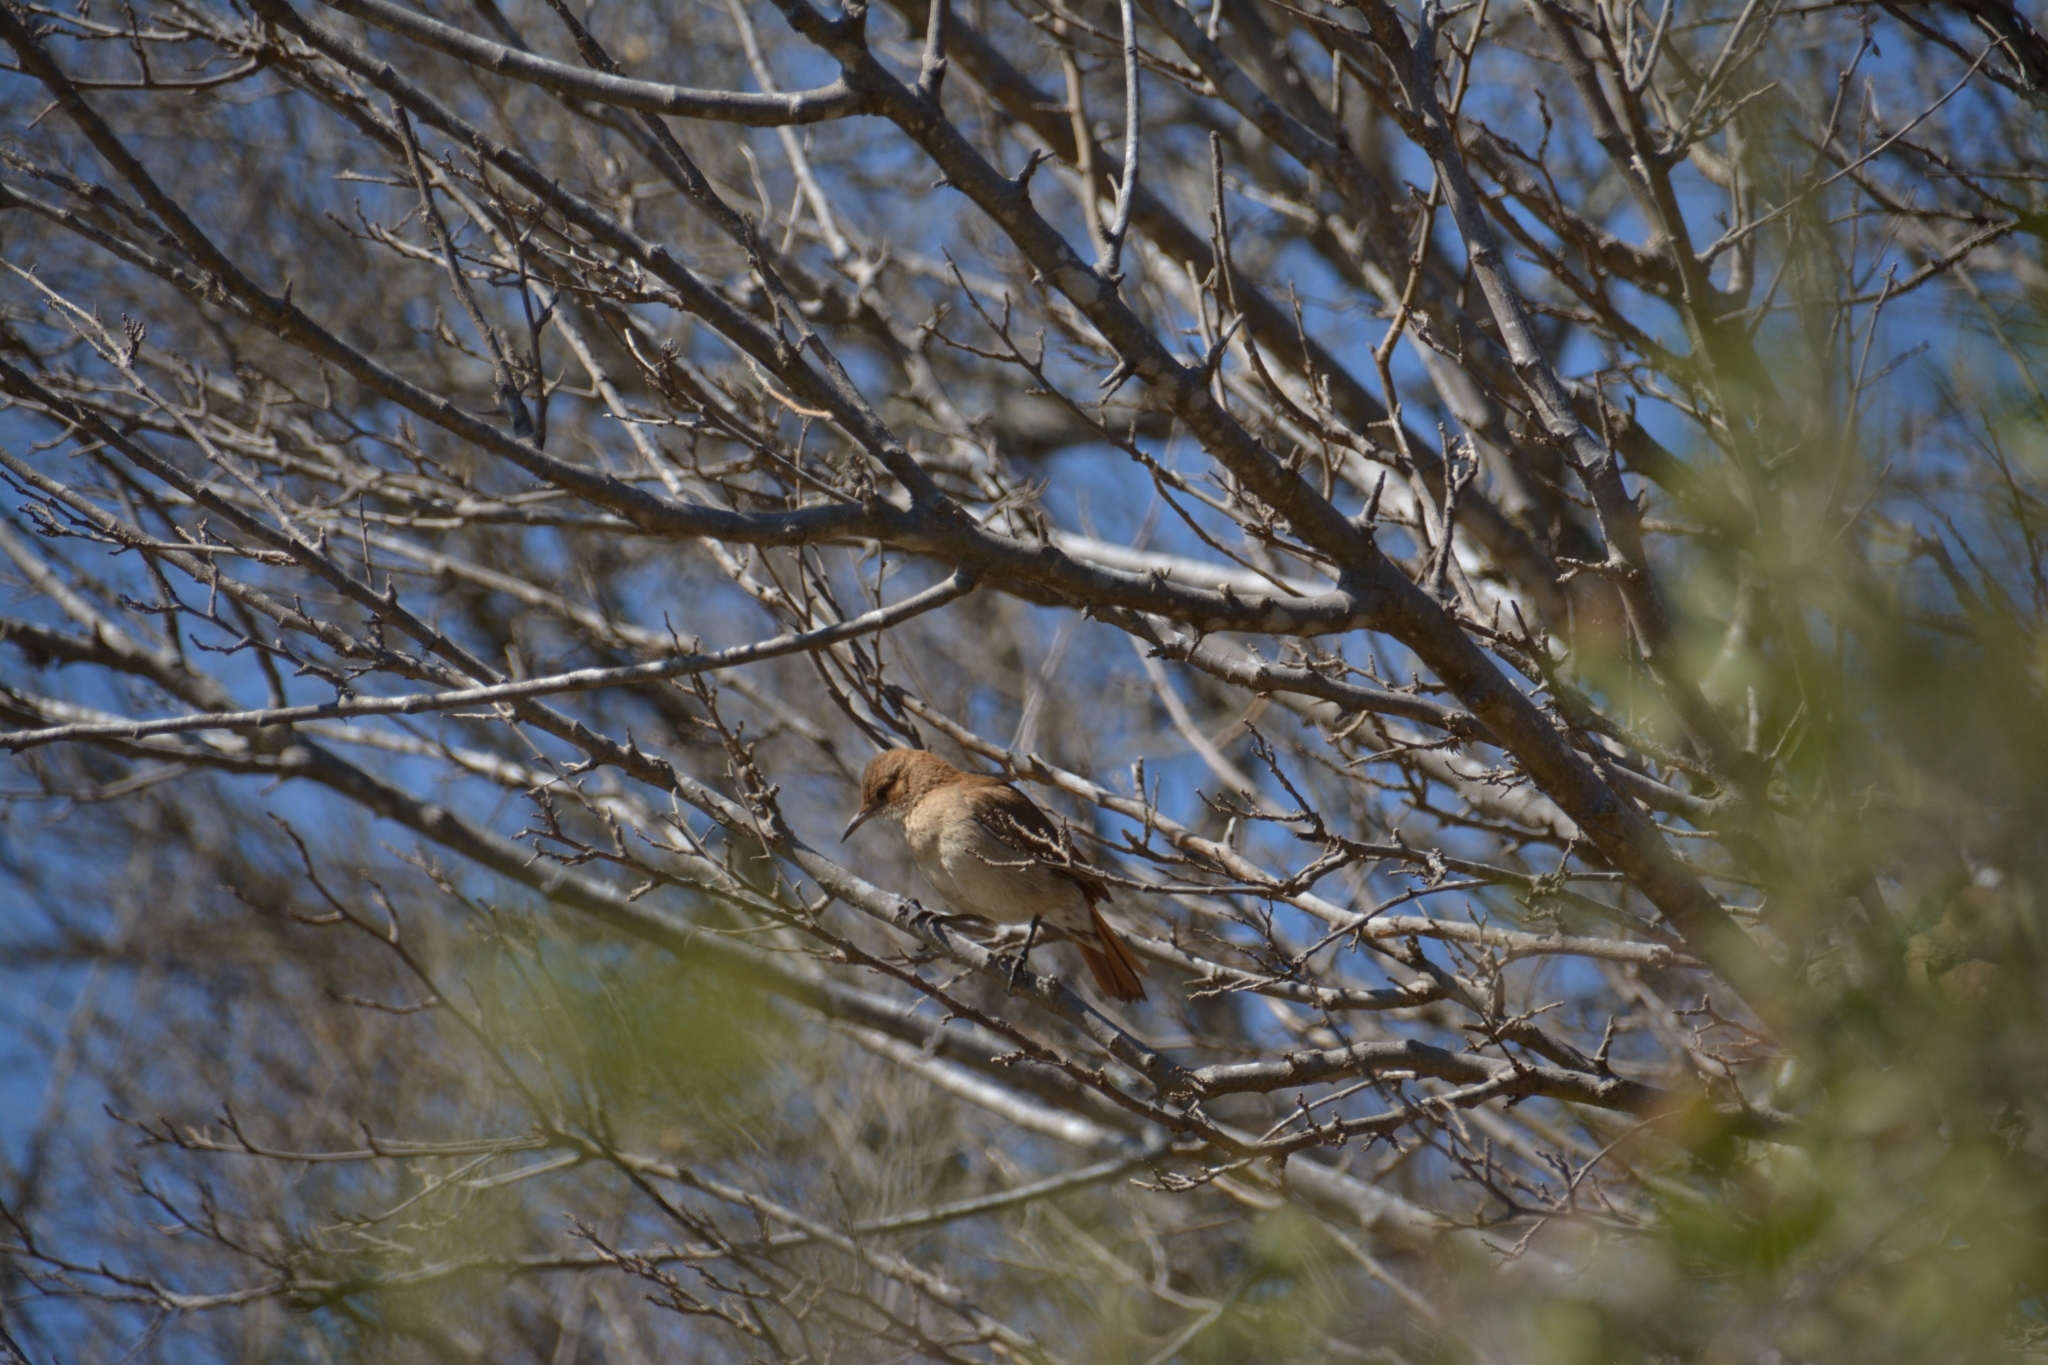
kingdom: Animalia
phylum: Chordata
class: Aves
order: Passeriformes
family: Furnariidae
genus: Furnarius
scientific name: Furnarius rufus
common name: Rufous hornero
